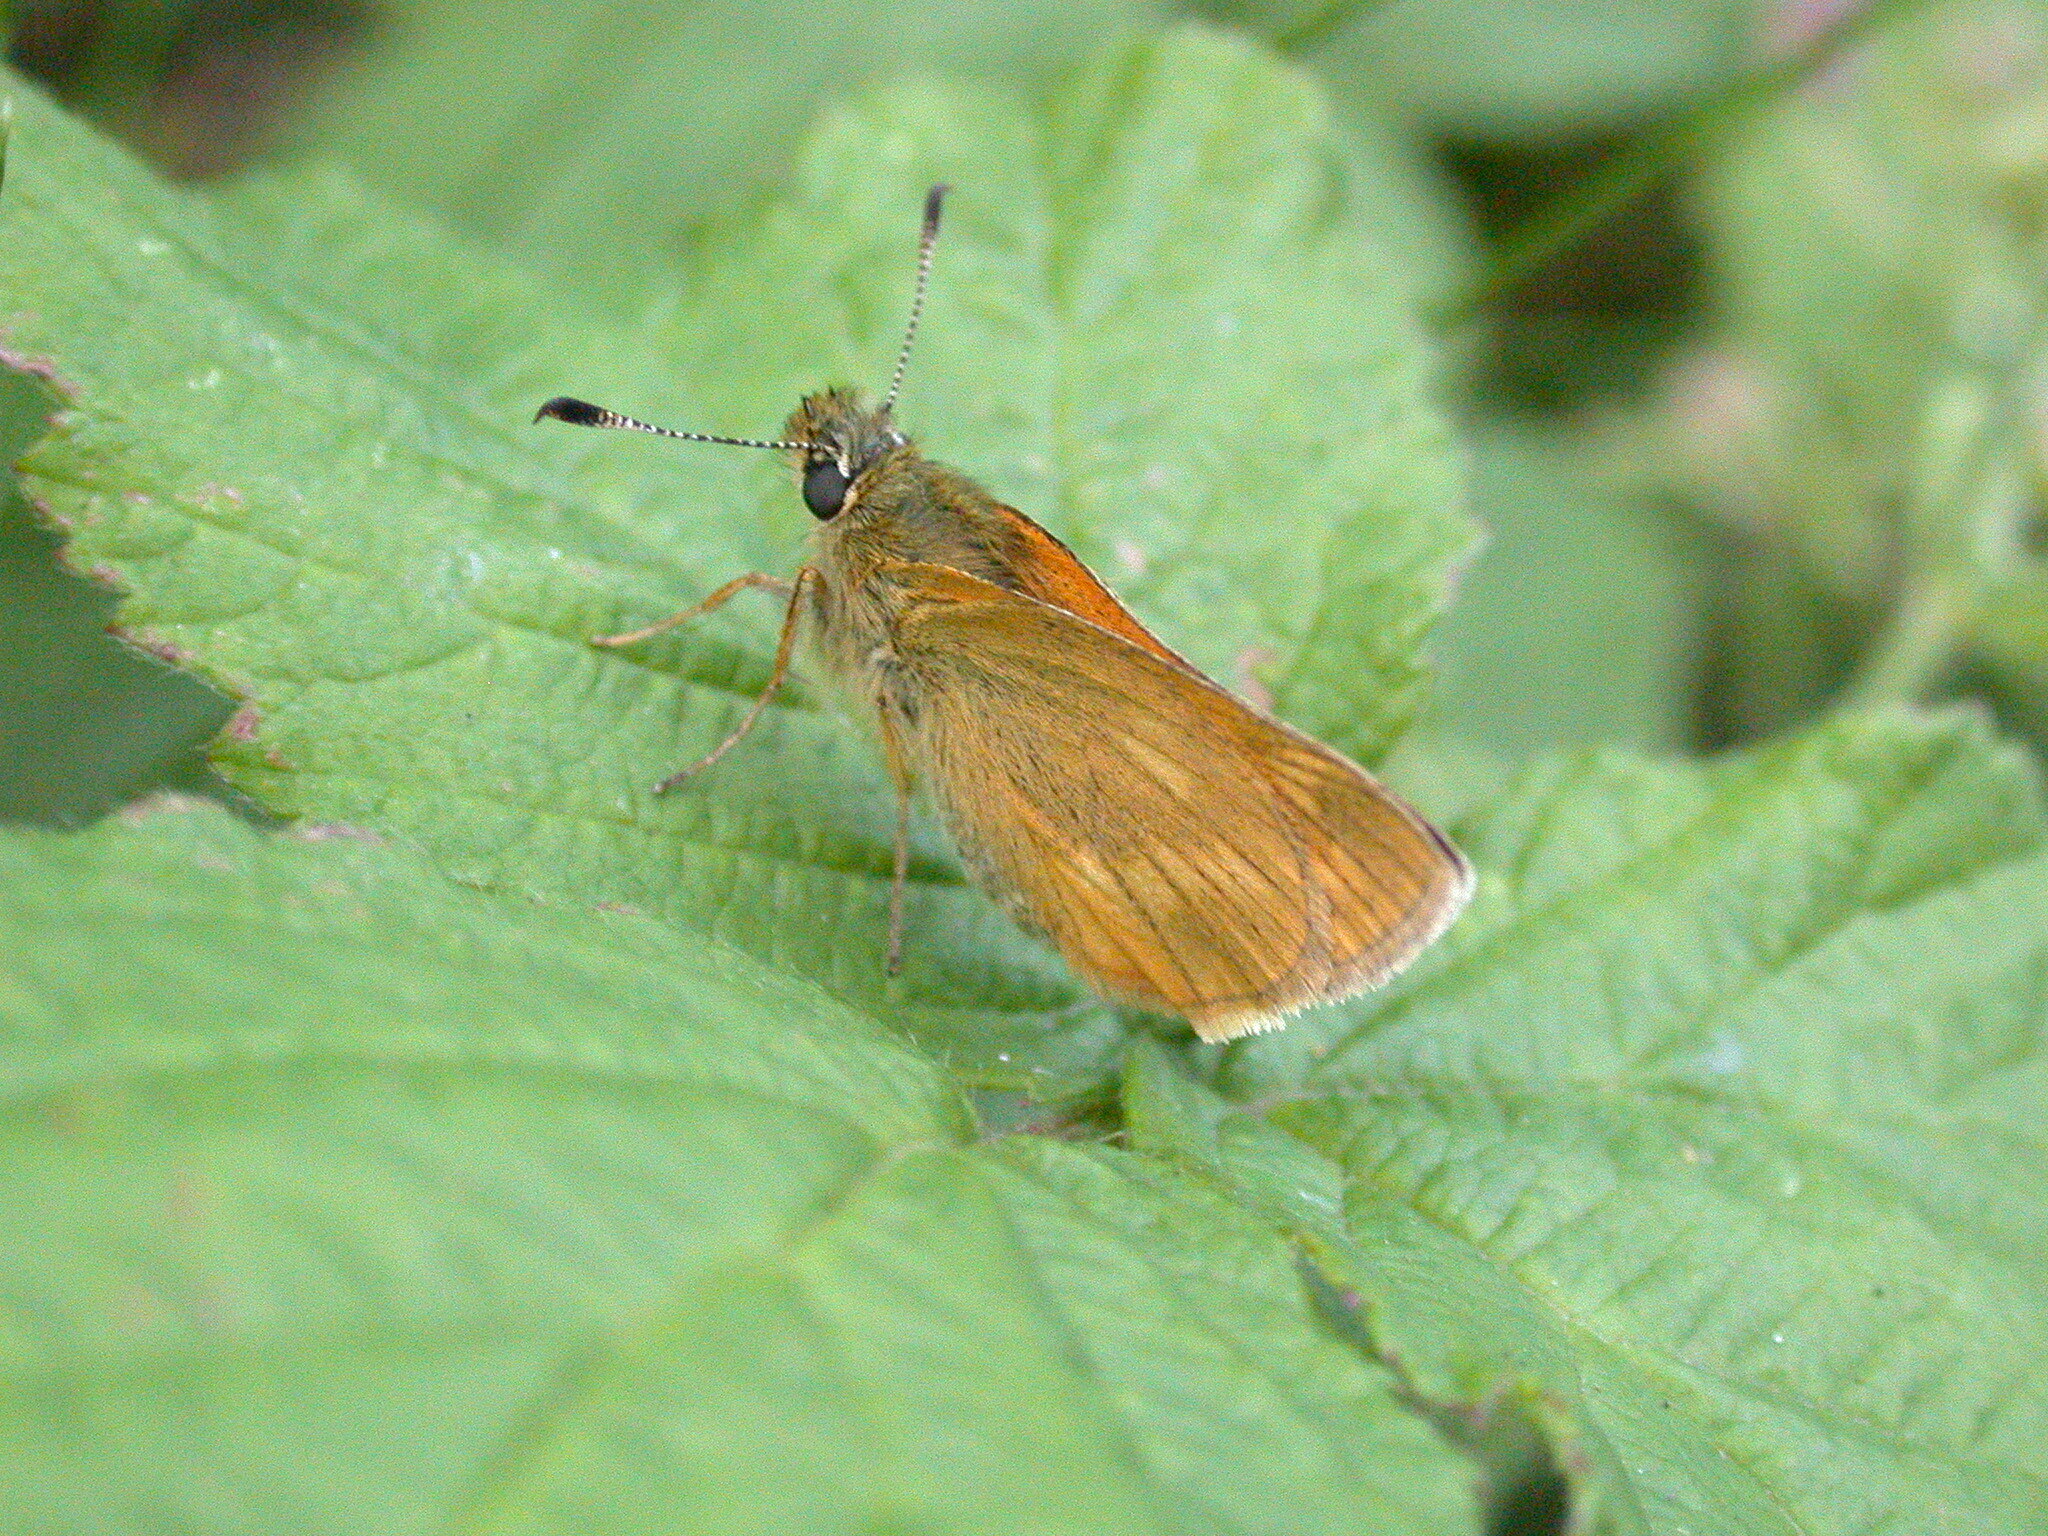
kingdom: Animalia
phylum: Arthropoda
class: Insecta
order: Lepidoptera
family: Hesperiidae
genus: Ochlodes
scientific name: Ochlodes venata
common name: Large skipper
